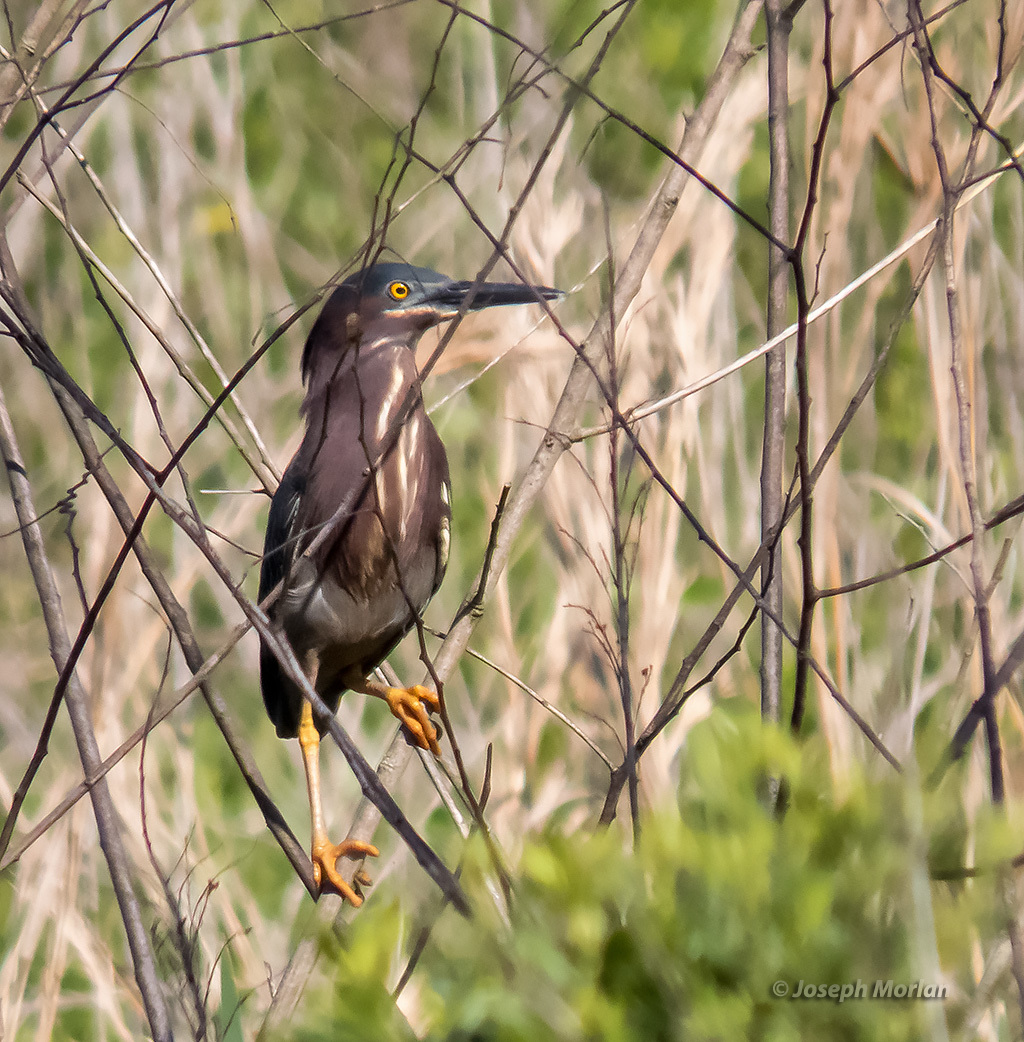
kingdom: Animalia
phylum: Chordata
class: Aves
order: Pelecaniformes
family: Ardeidae
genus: Butorides
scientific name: Butorides virescens
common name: Green heron
